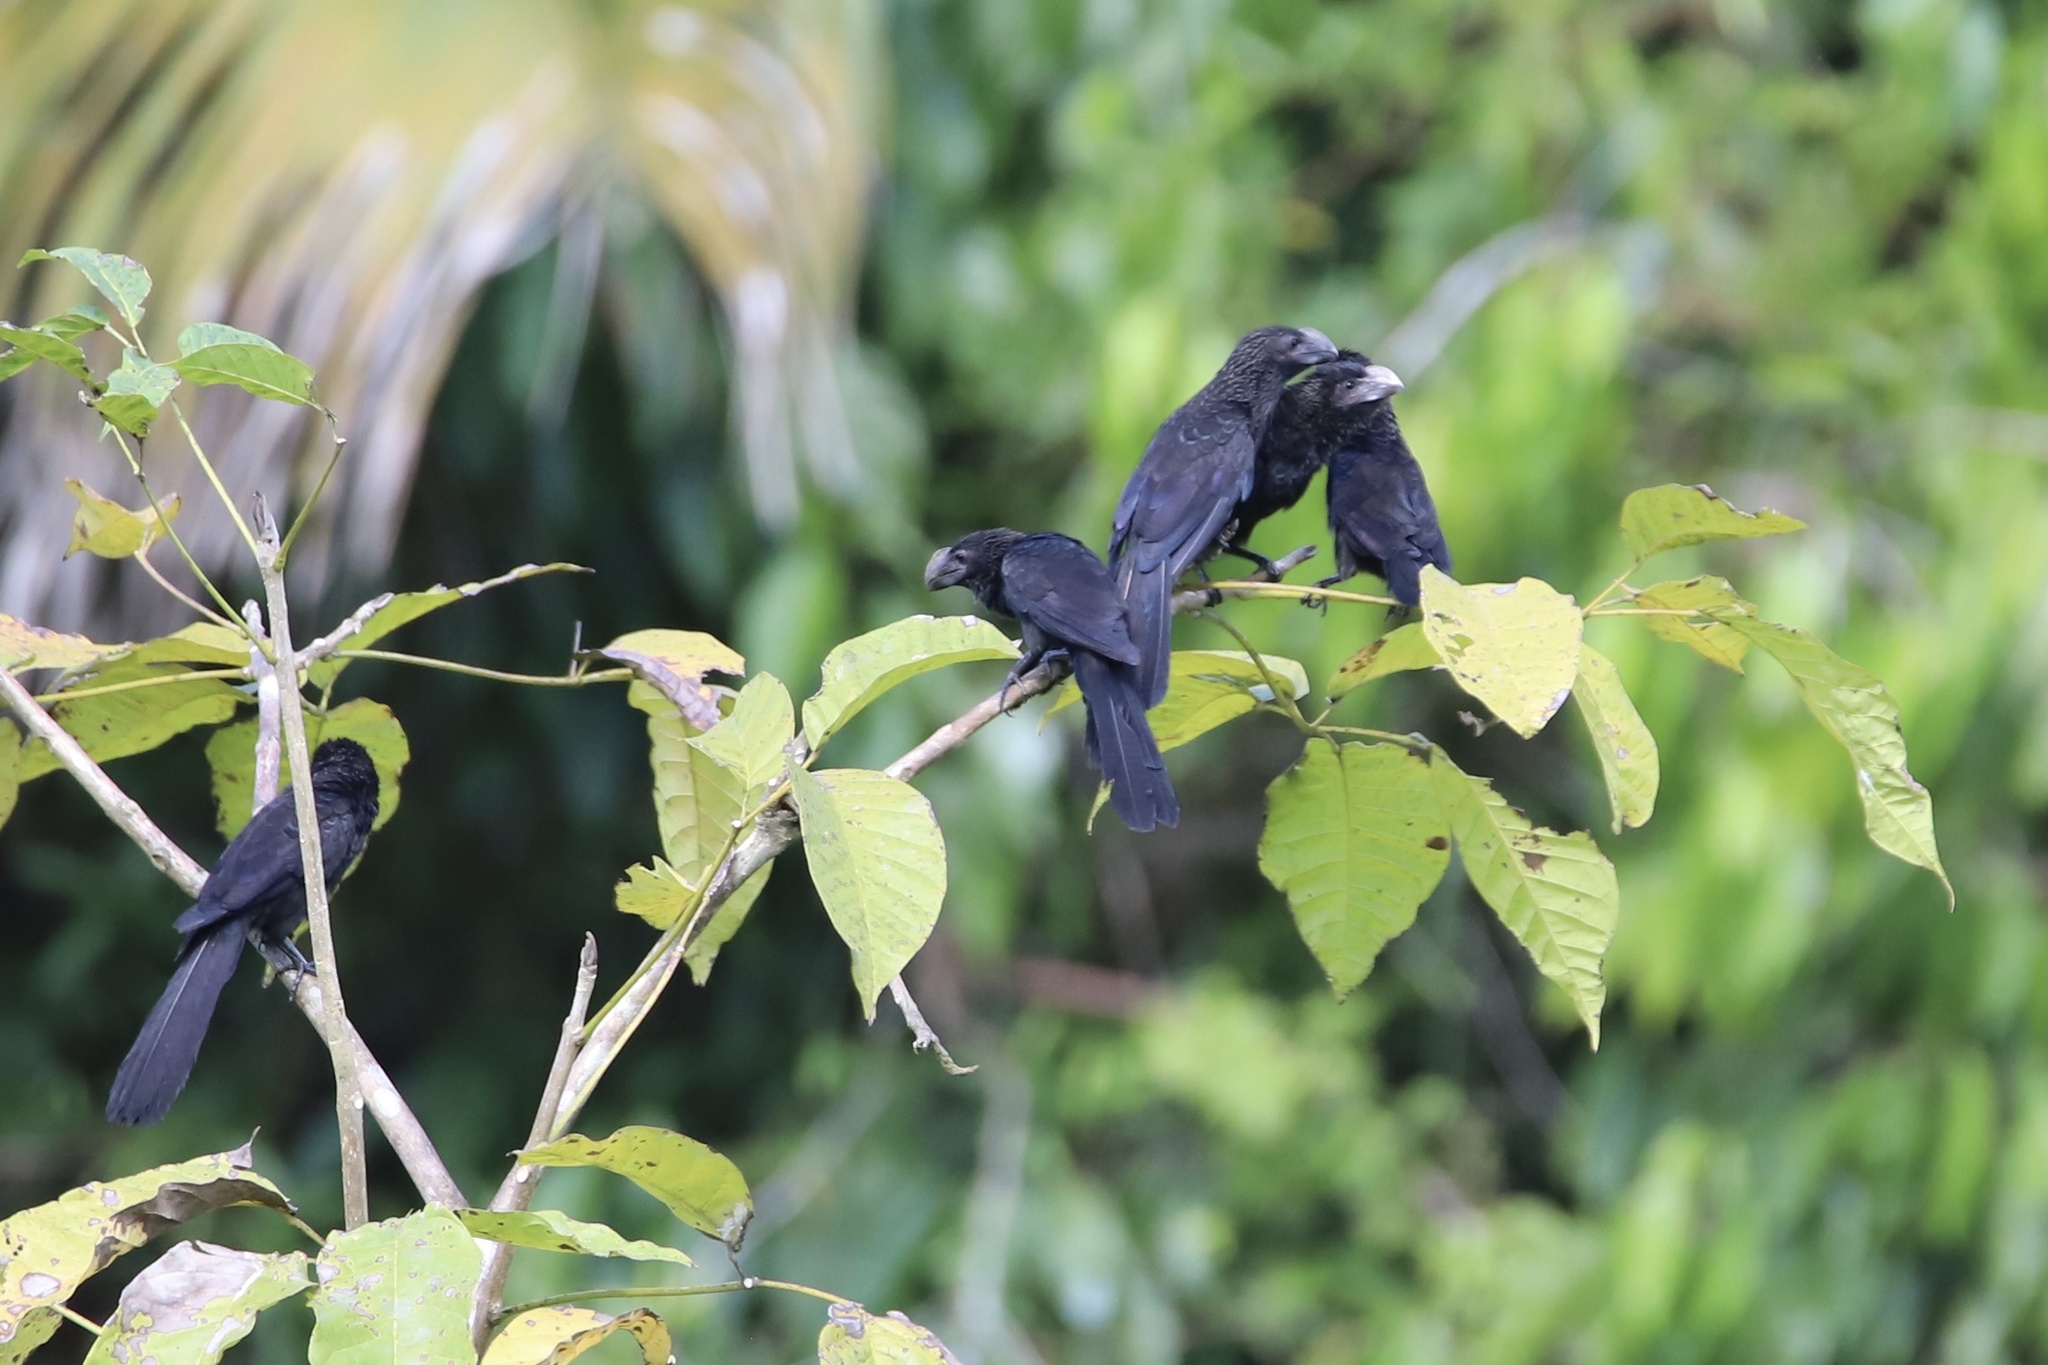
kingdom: Animalia
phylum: Chordata
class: Aves
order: Cuculiformes
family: Cuculidae
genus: Crotophaga
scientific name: Crotophaga ani
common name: Smooth-billed ani
